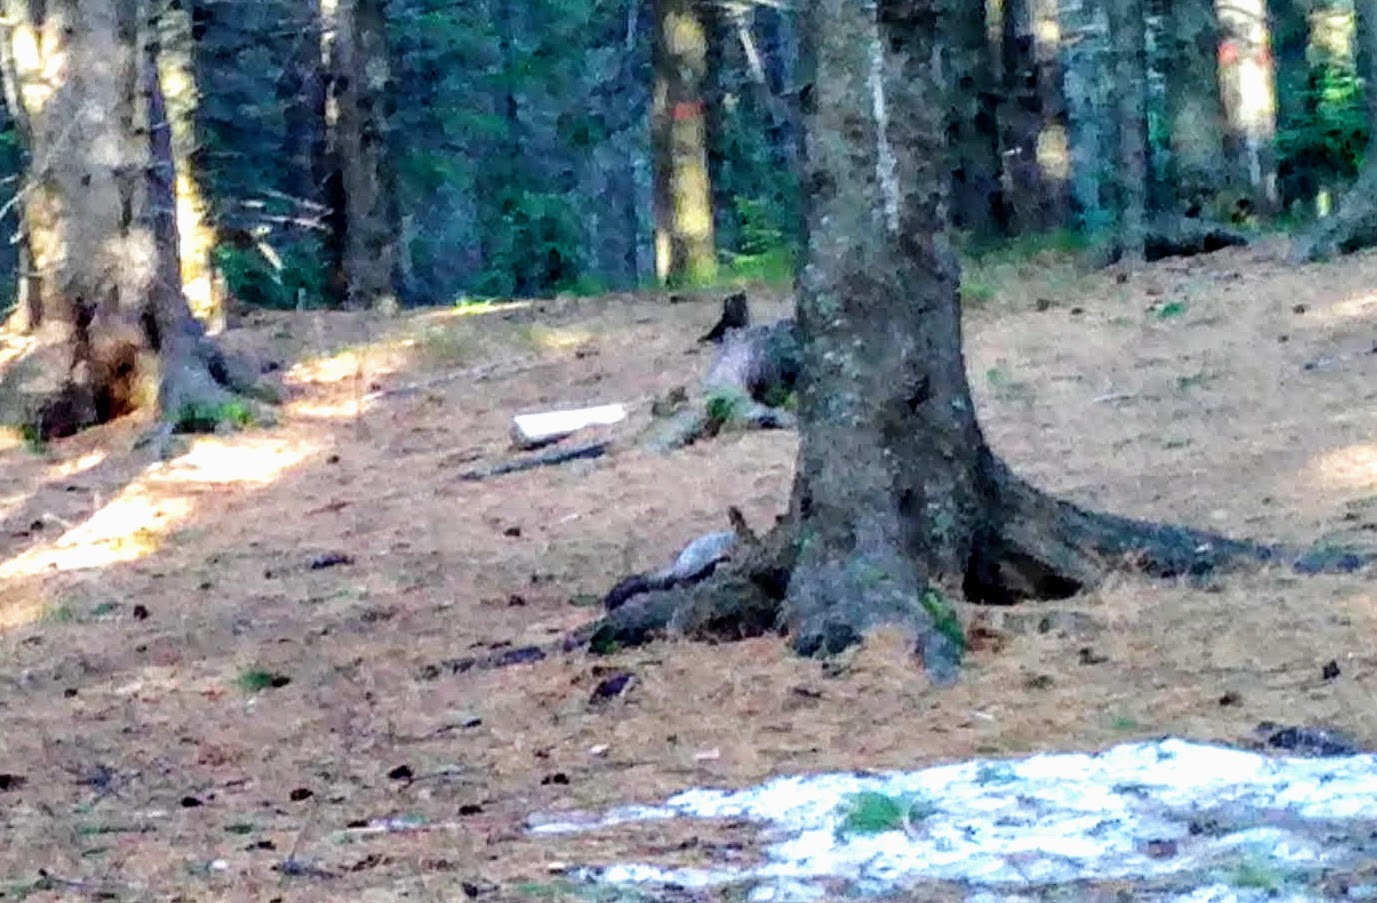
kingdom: Animalia
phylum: Chordata
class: Mammalia
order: Rodentia
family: Sciuridae
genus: Sciurus
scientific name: Sciurus vulgaris
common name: Eurasian red squirrel
